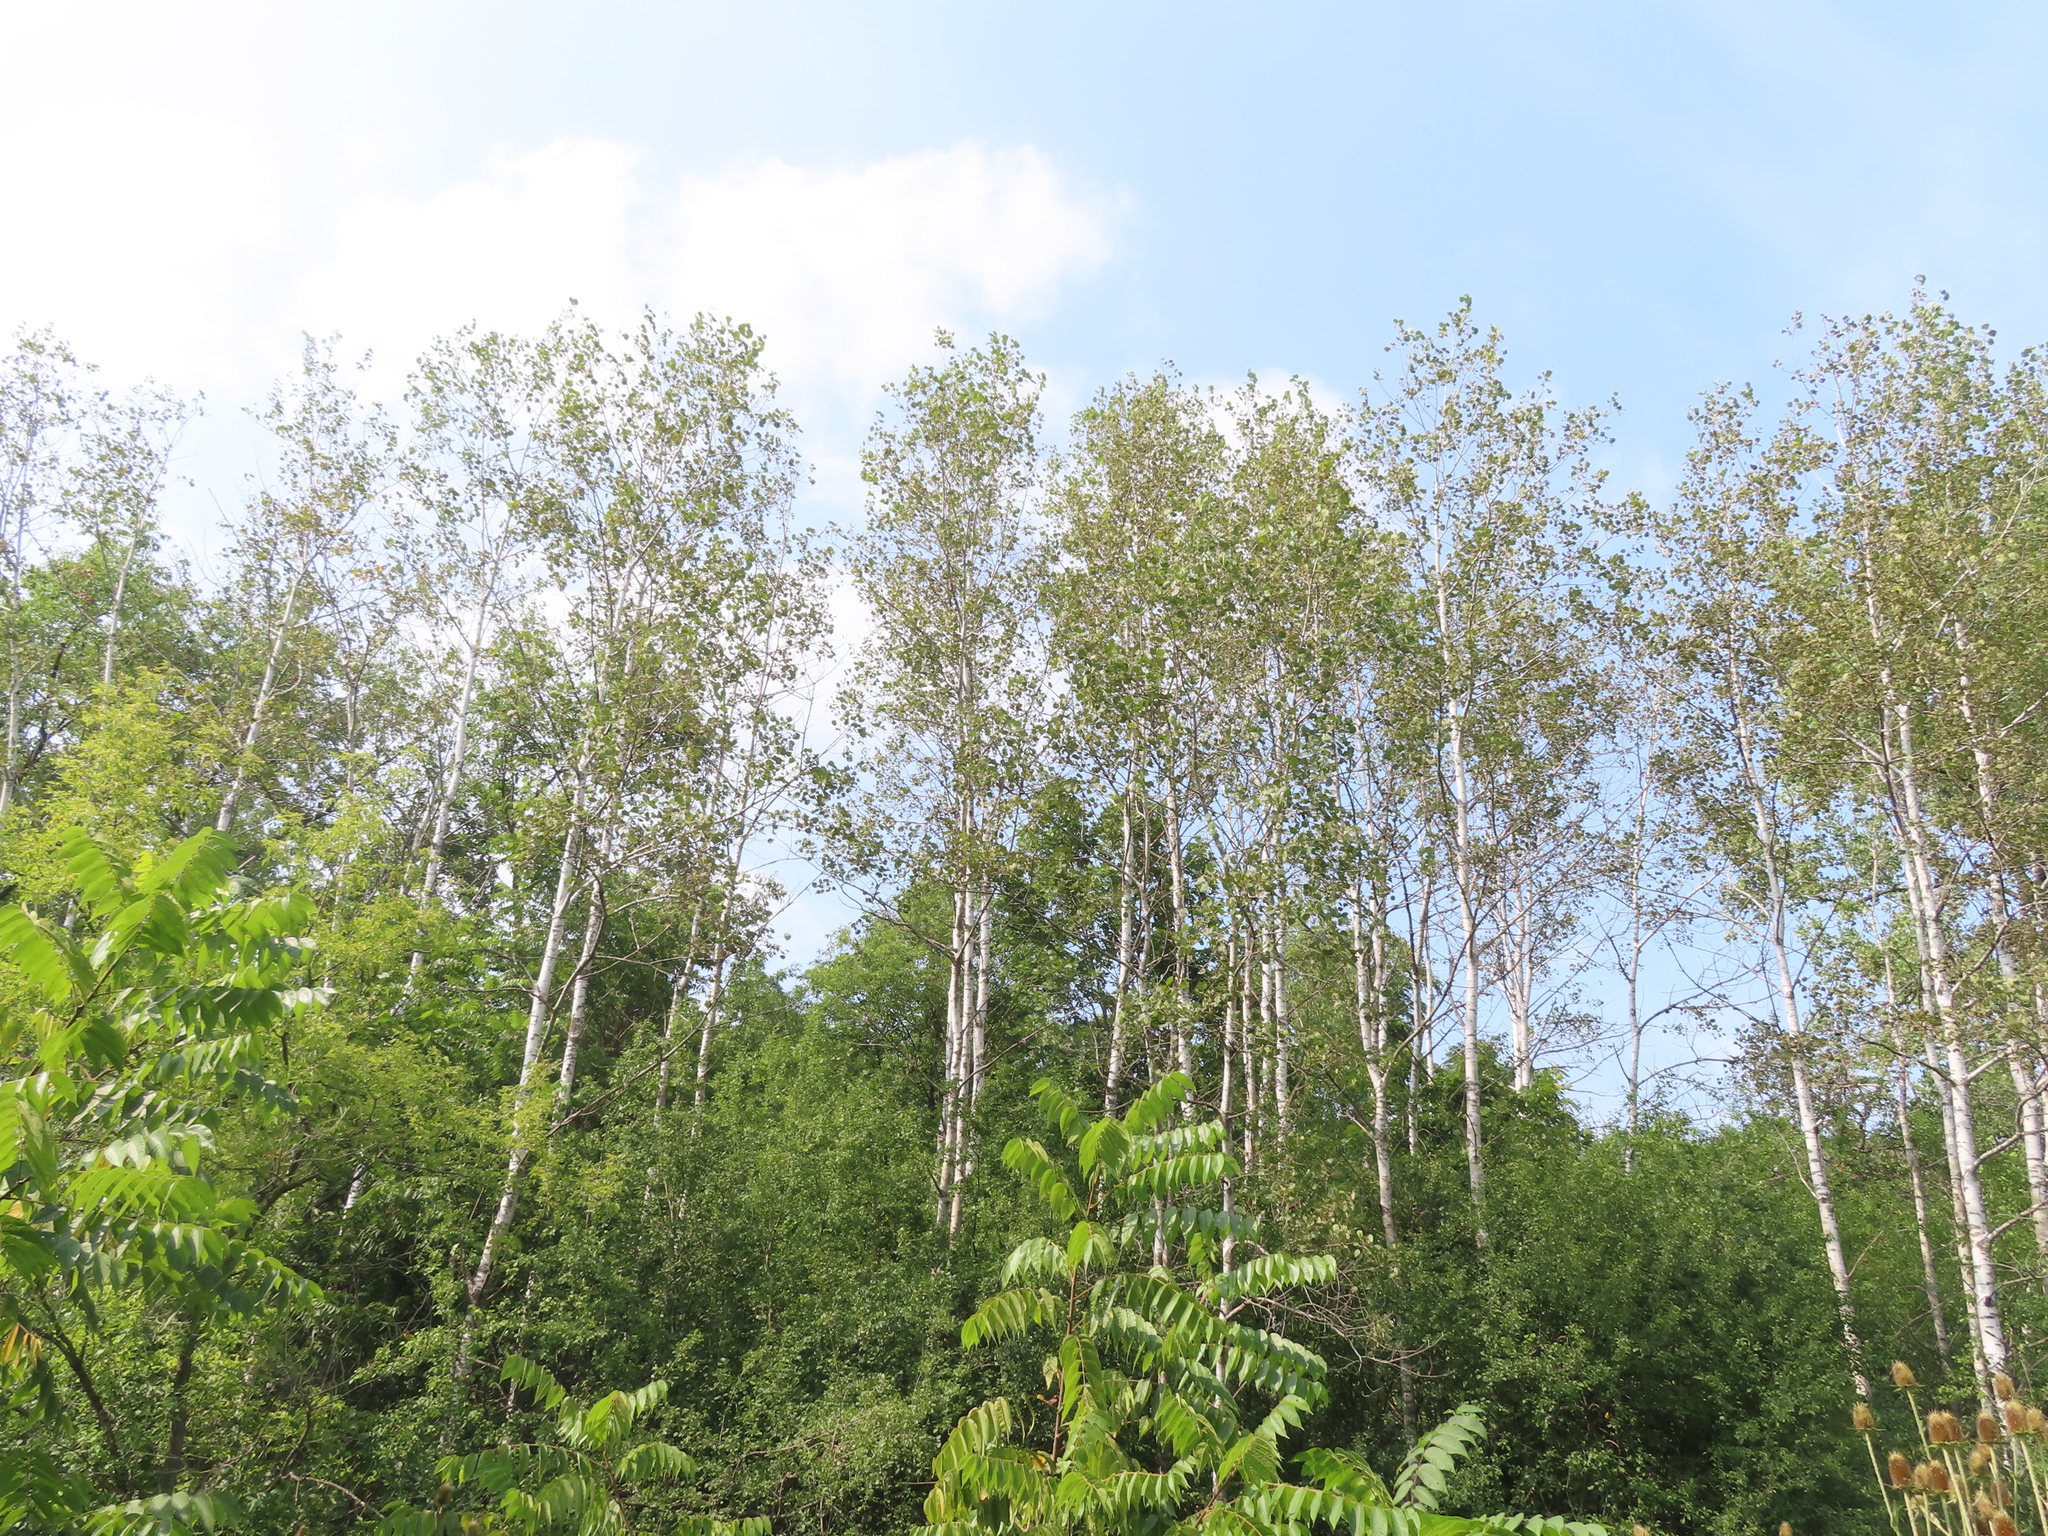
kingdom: Plantae
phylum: Tracheophyta
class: Magnoliopsida
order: Malpighiales
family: Salicaceae
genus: Populus
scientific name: Populus tremuloides
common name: Quaking aspen
